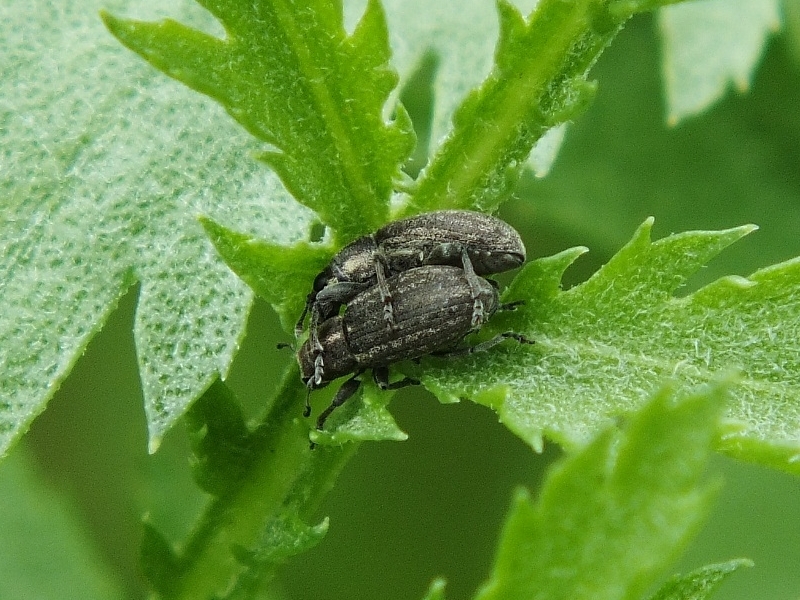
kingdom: Animalia
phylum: Arthropoda
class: Insecta
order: Coleoptera
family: Curculionidae
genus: Sitona
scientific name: Sitona inops
